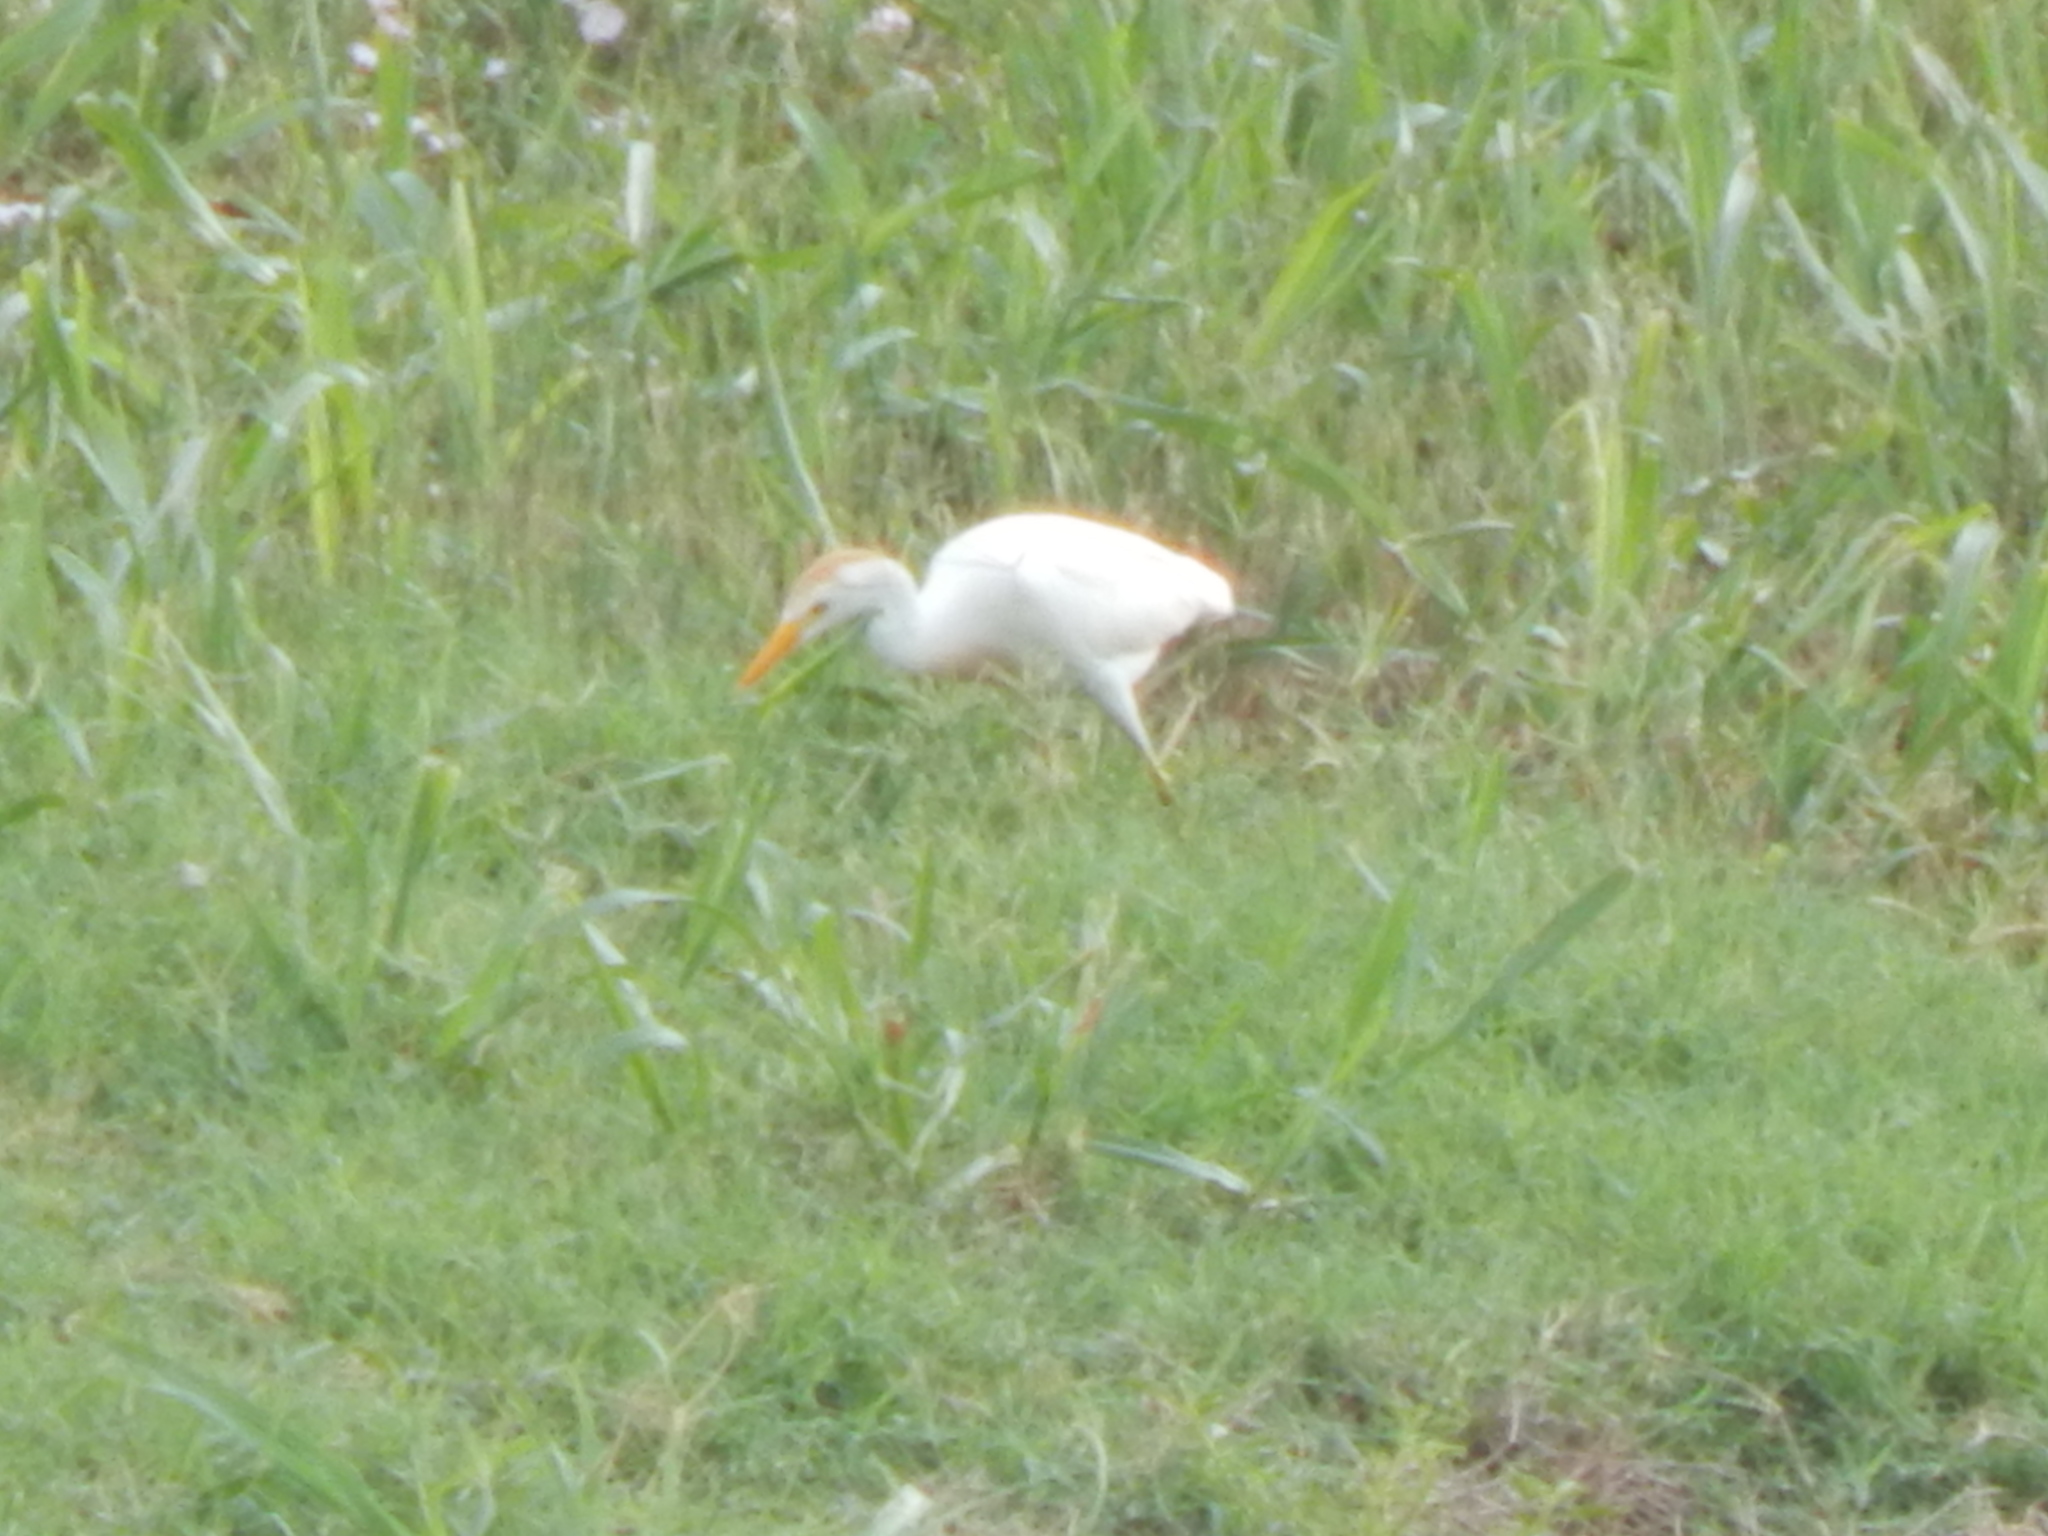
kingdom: Animalia
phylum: Chordata
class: Aves
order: Pelecaniformes
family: Ardeidae
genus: Bubulcus
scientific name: Bubulcus ibis
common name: Cattle egret
